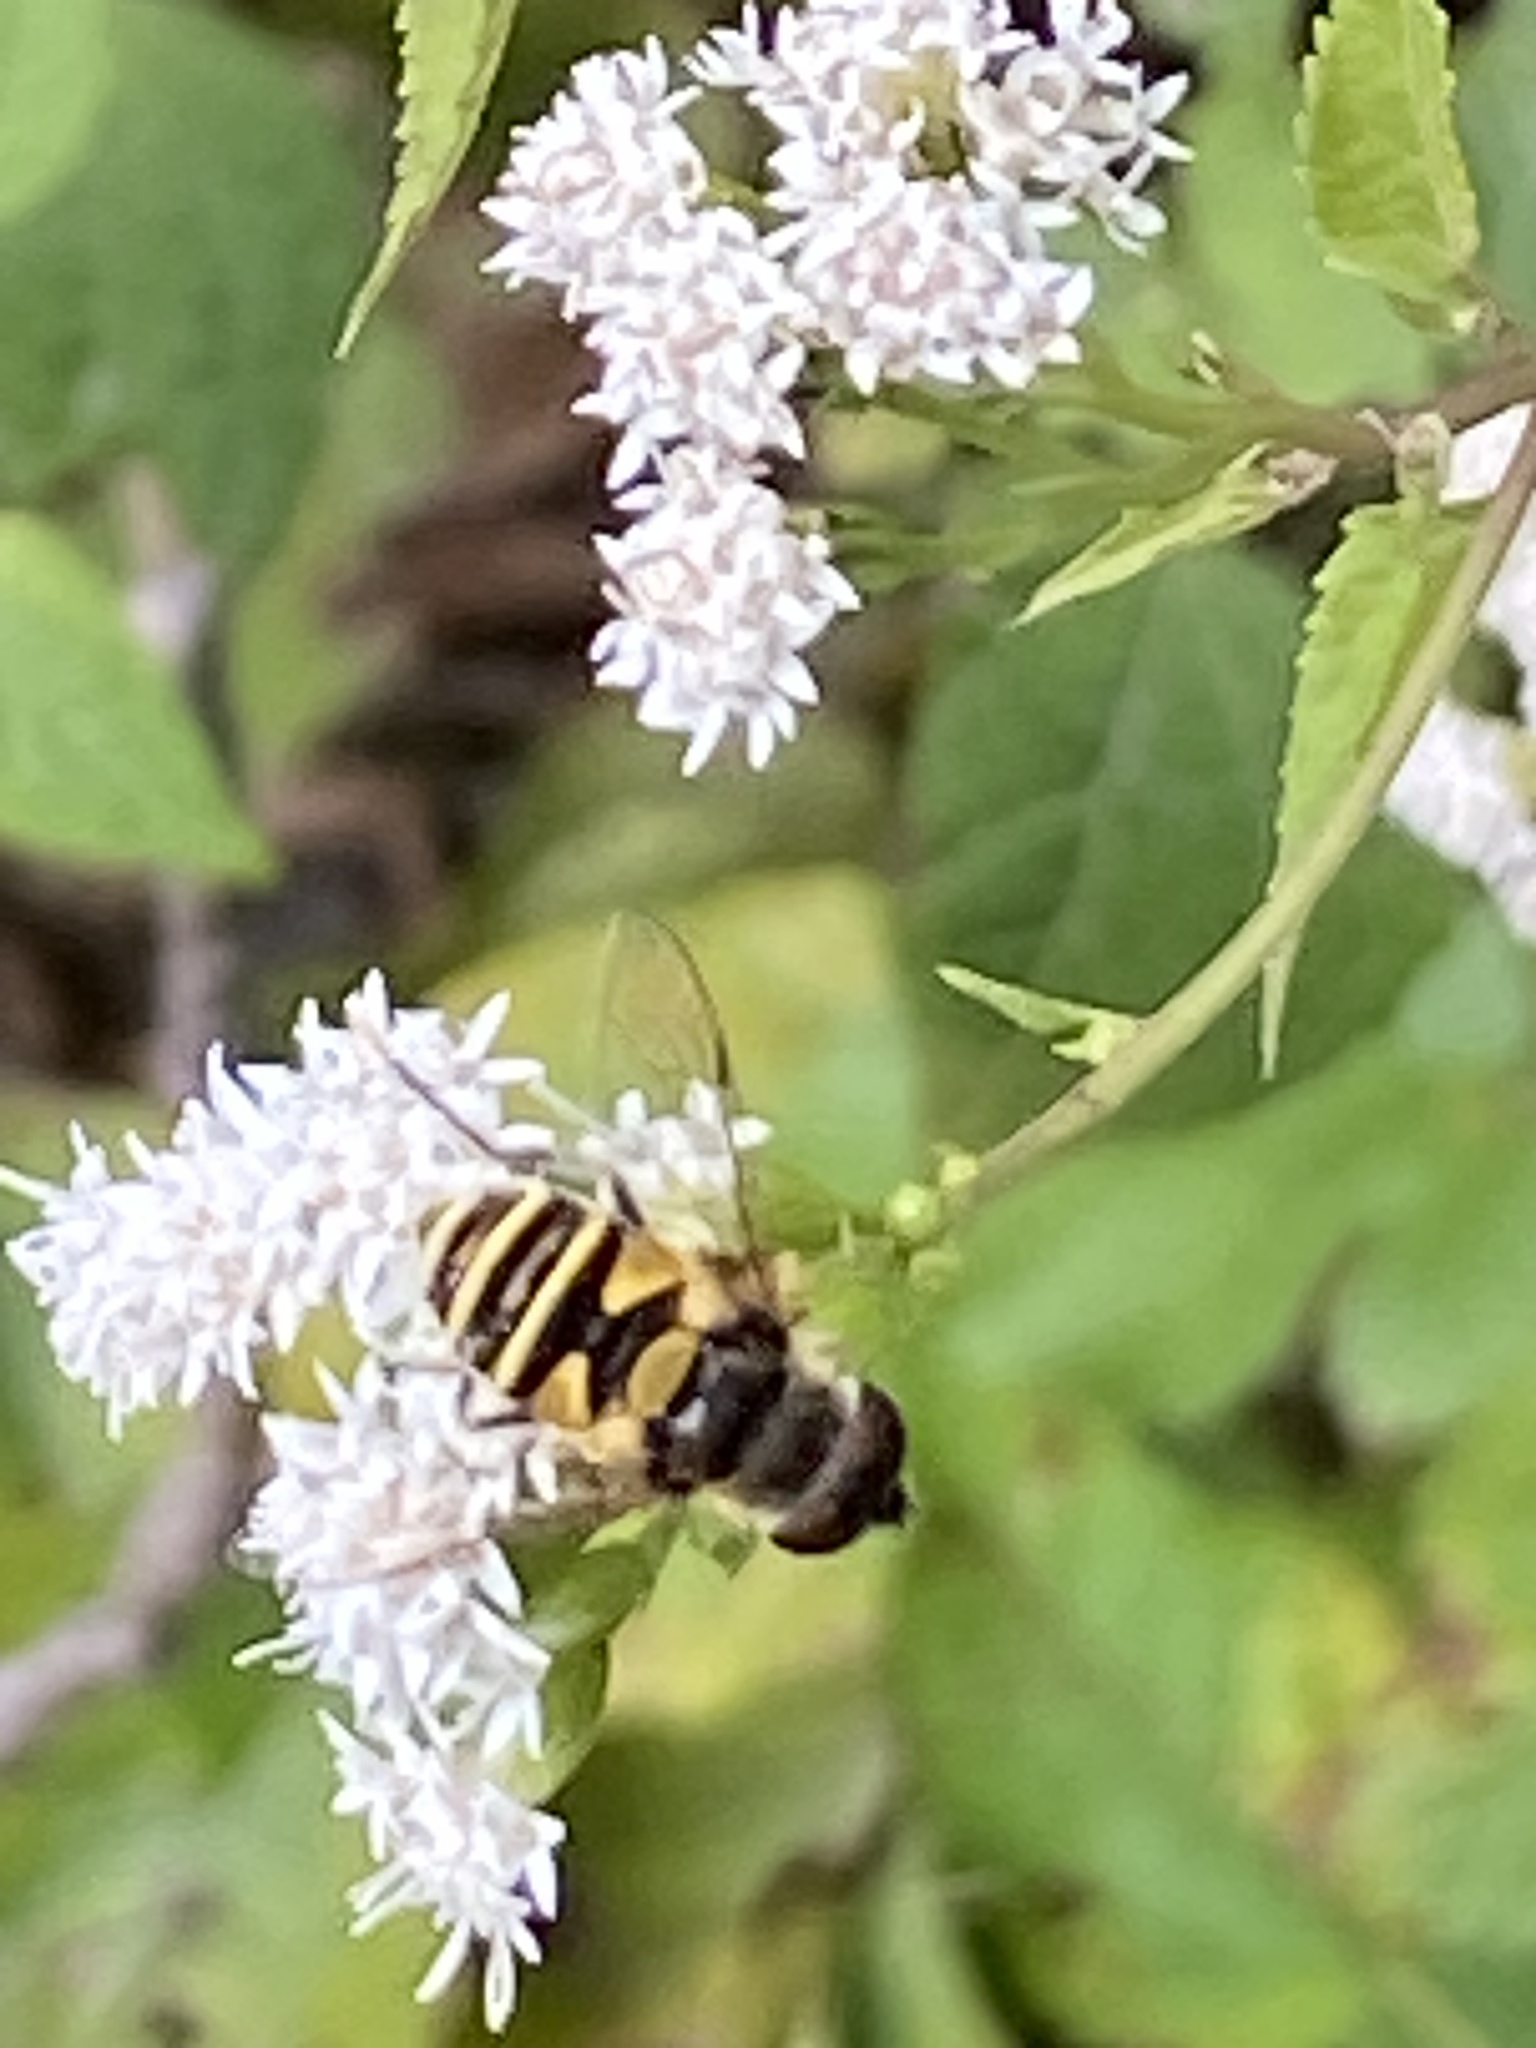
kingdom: Animalia
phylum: Arthropoda
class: Insecta
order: Diptera
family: Syrphidae
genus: Eristalis
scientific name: Eristalis transversa
